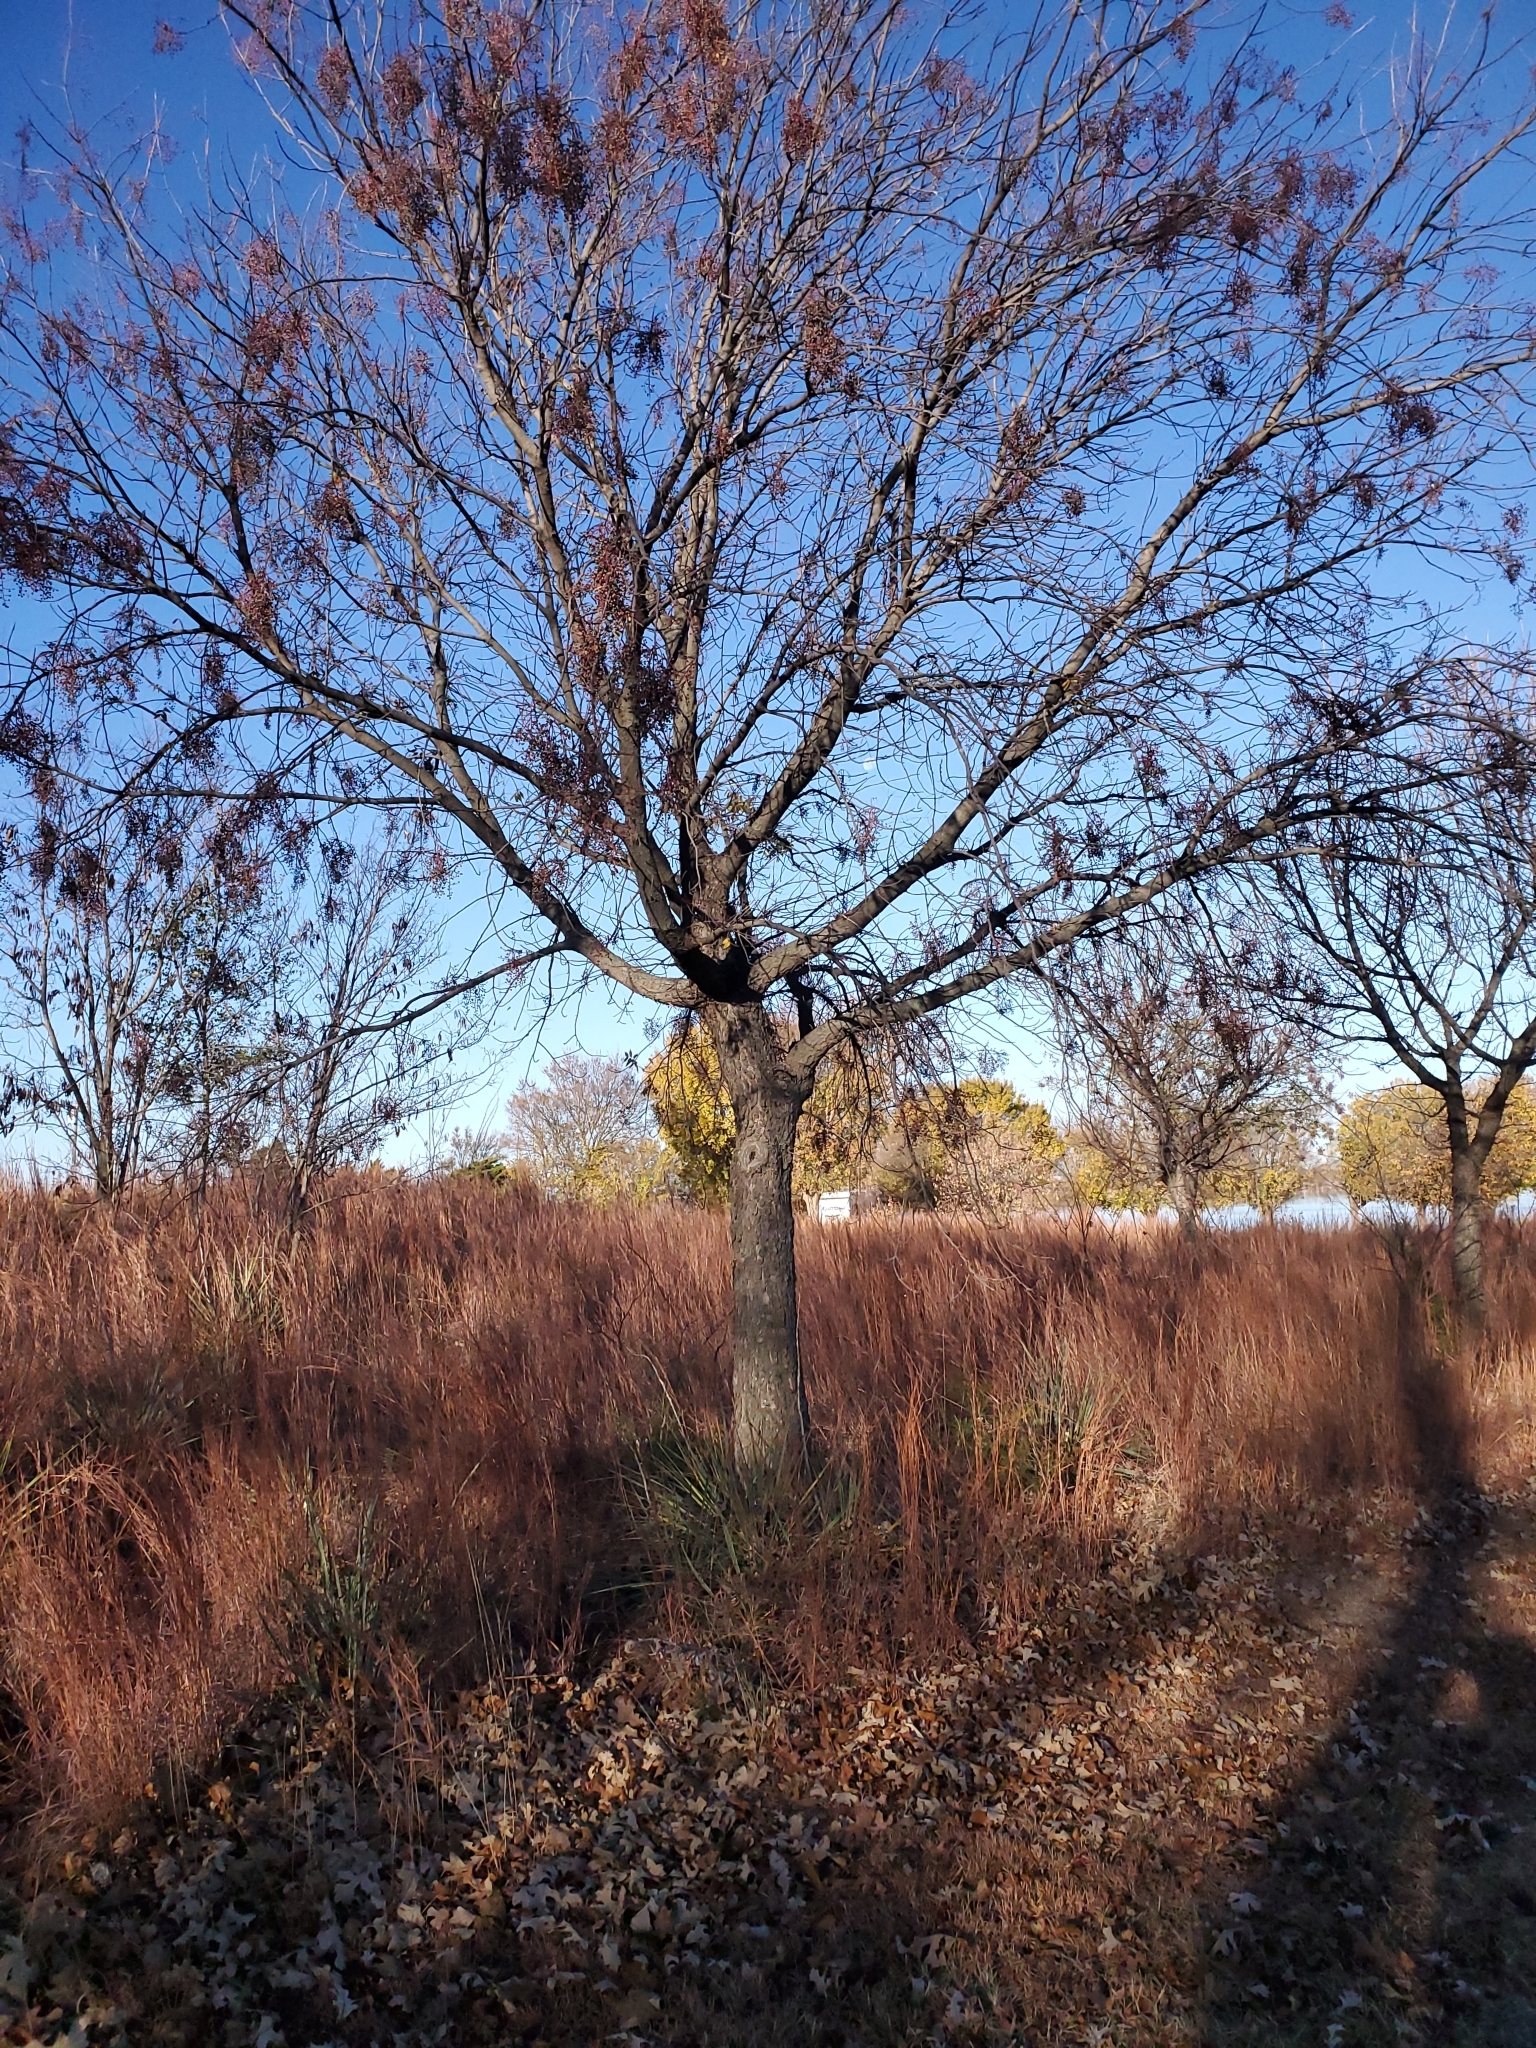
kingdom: Plantae
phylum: Tracheophyta
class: Magnoliopsida
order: Sapindales
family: Anacardiaceae
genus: Pistacia
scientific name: Pistacia chinensis
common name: Chinese pistache
